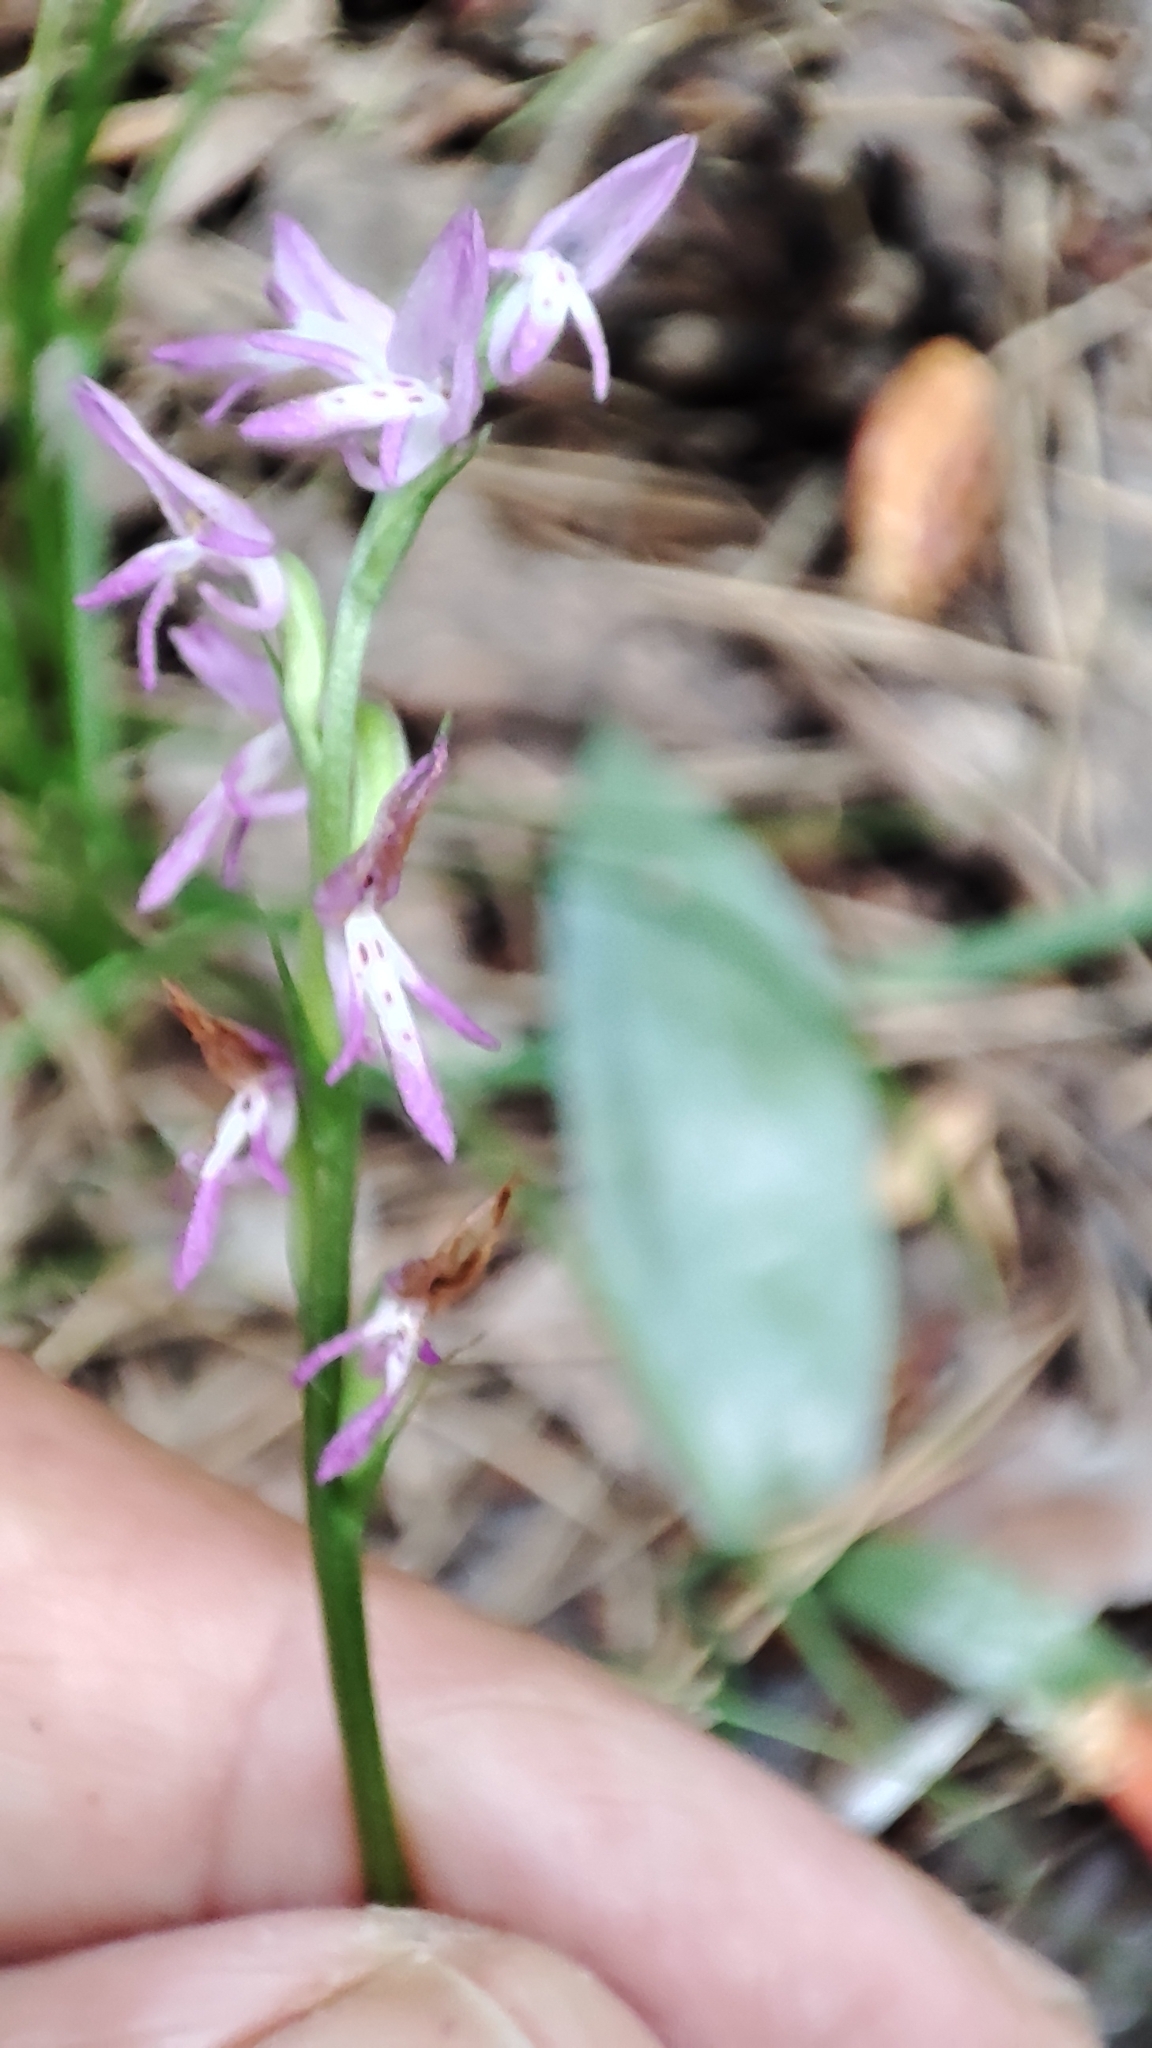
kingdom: Plantae
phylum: Tracheophyta
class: Liliopsida
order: Asparagales
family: Orchidaceae
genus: Hemipilia
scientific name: Hemipilia cucullata
